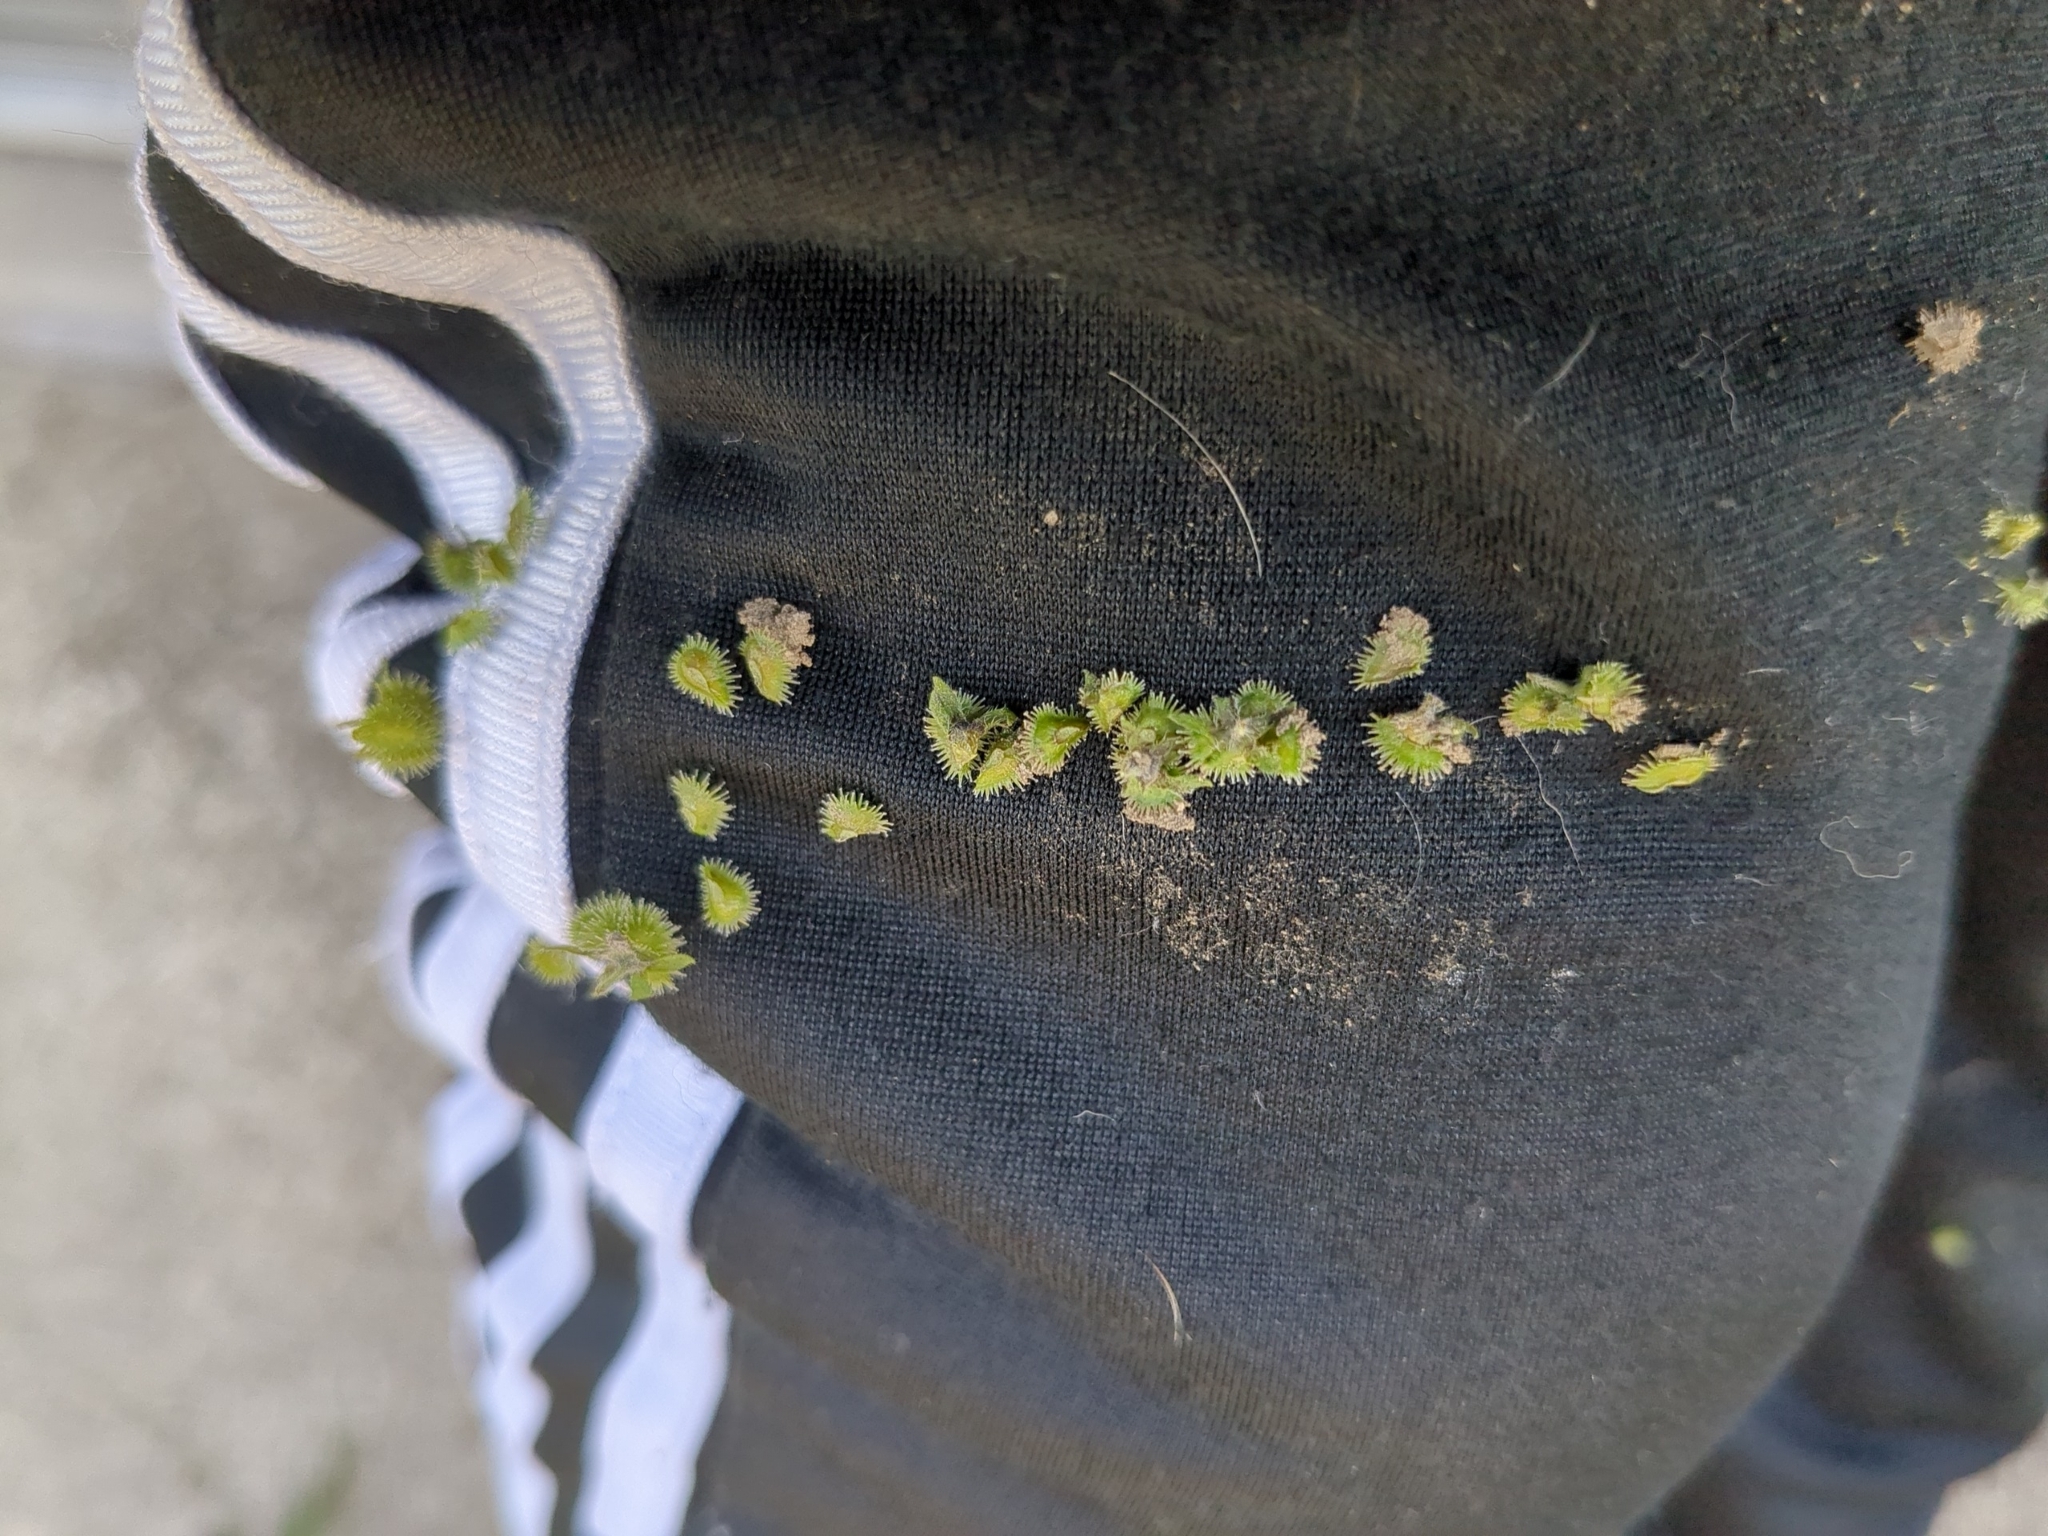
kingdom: Plantae
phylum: Tracheophyta
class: Magnoliopsida
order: Boraginales
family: Boraginaceae
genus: Hackelia
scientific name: Hackelia virginiana
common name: Beggar's-lice
